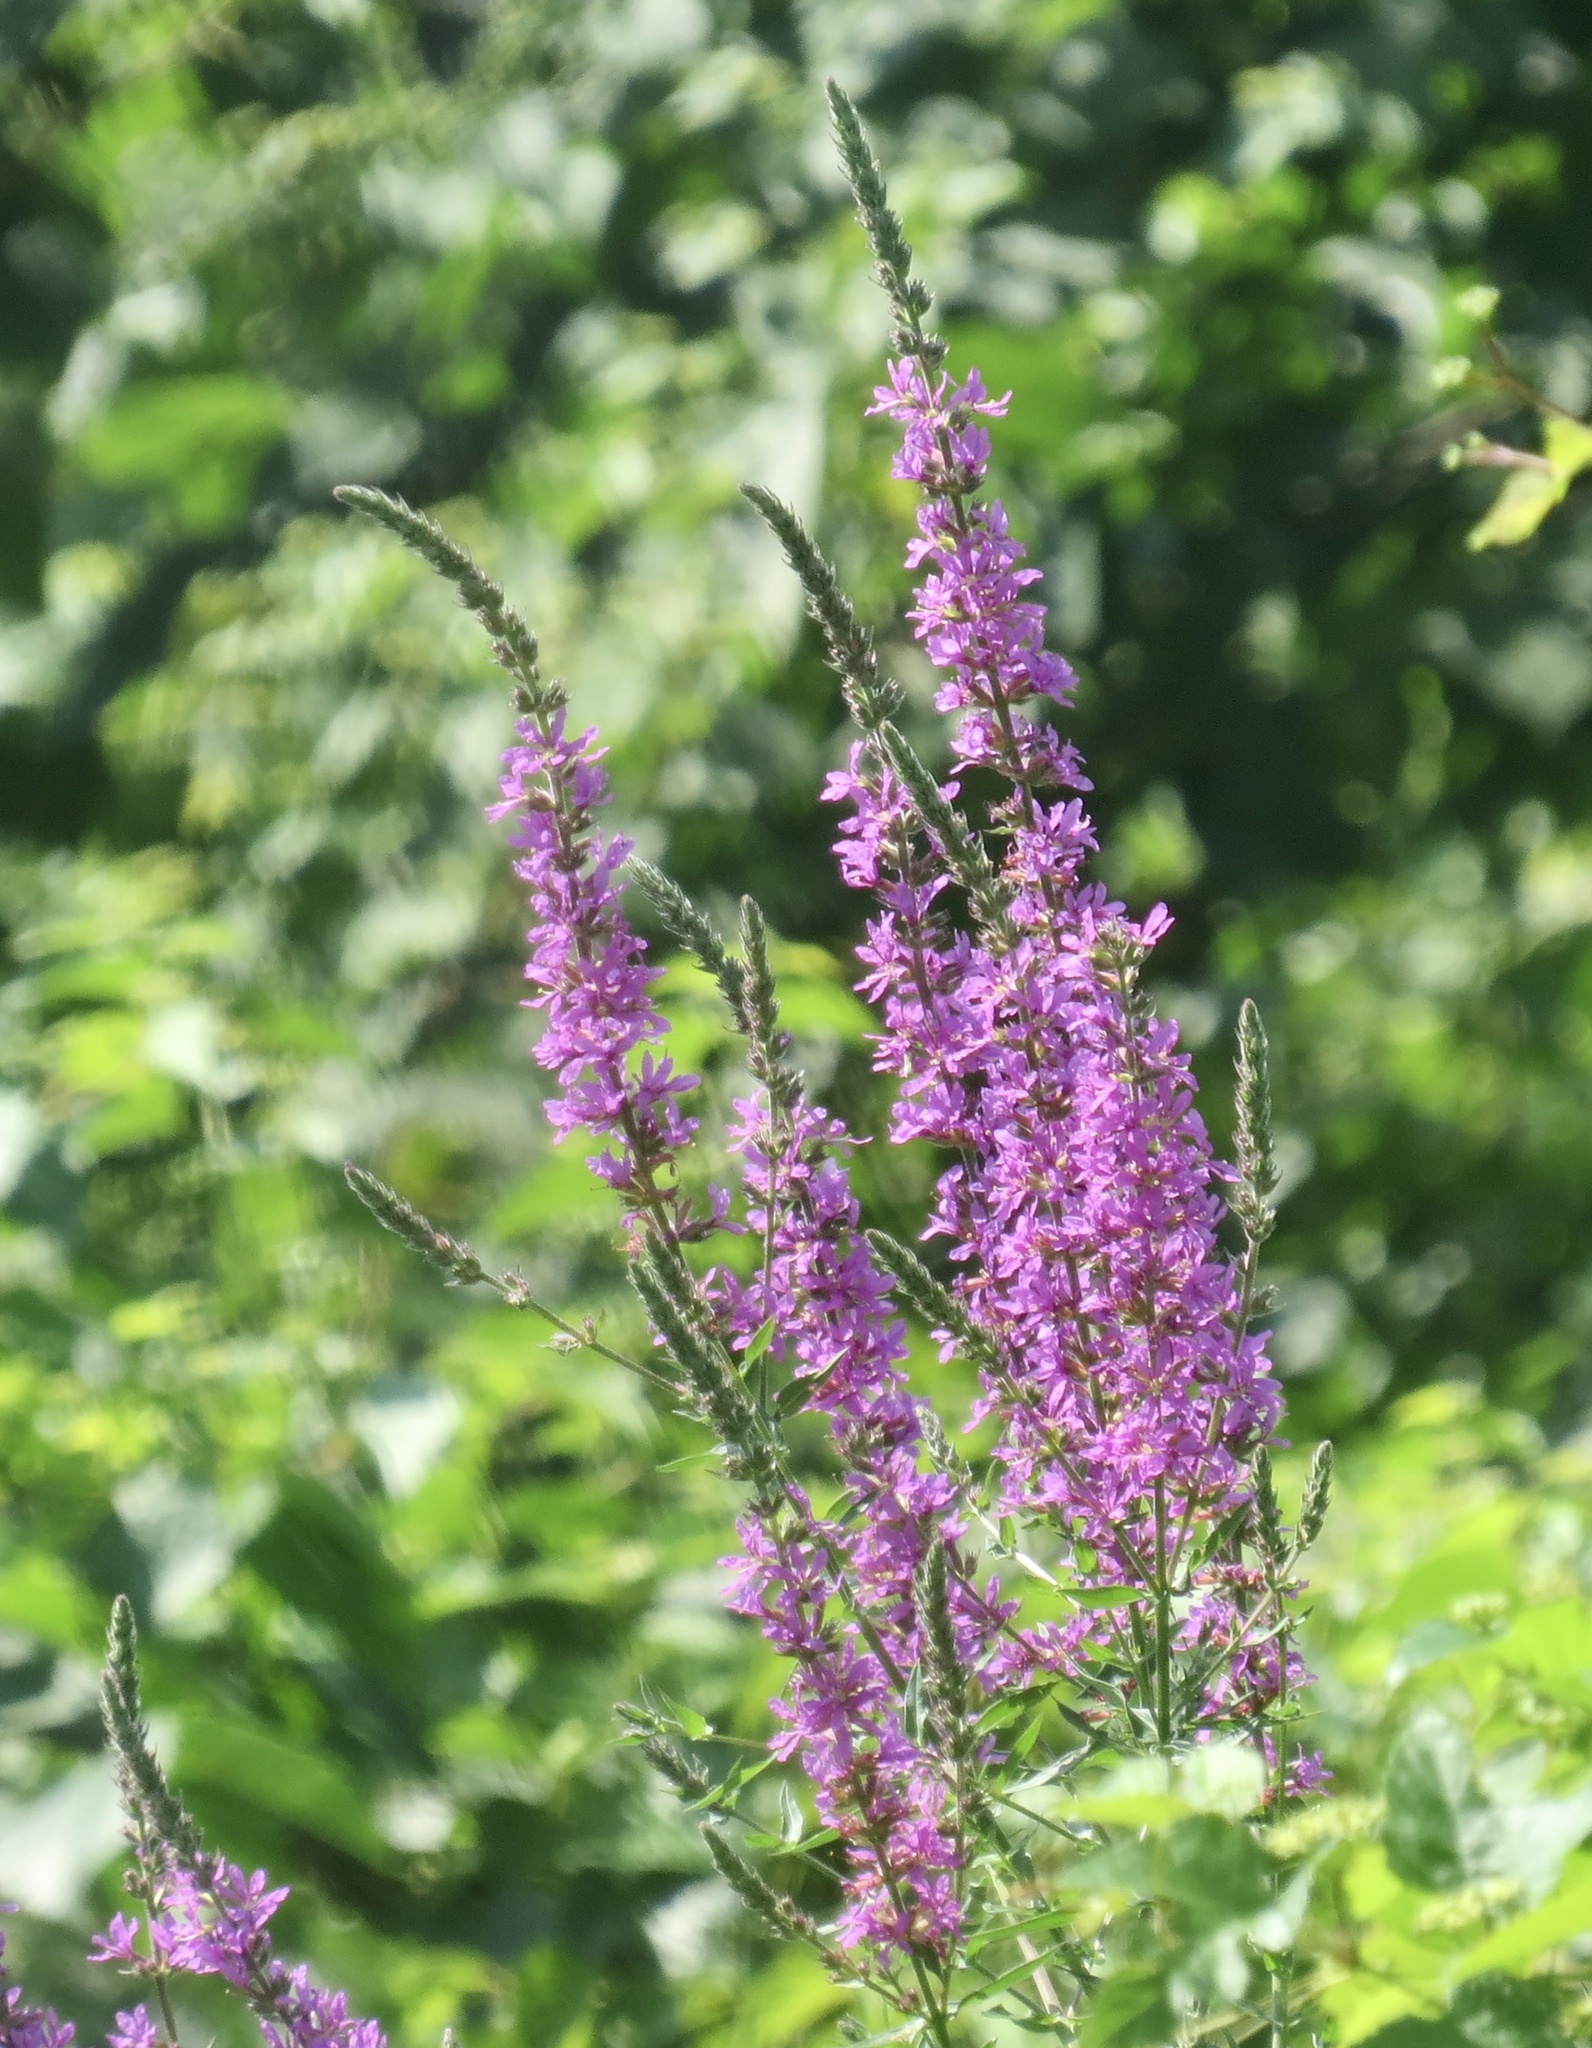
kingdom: Plantae
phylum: Tracheophyta
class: Magnoliopsida
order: Myrtales
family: Lythraceae
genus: Lythrum
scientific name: Lythrum salicaria
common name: Purple loosestrife
